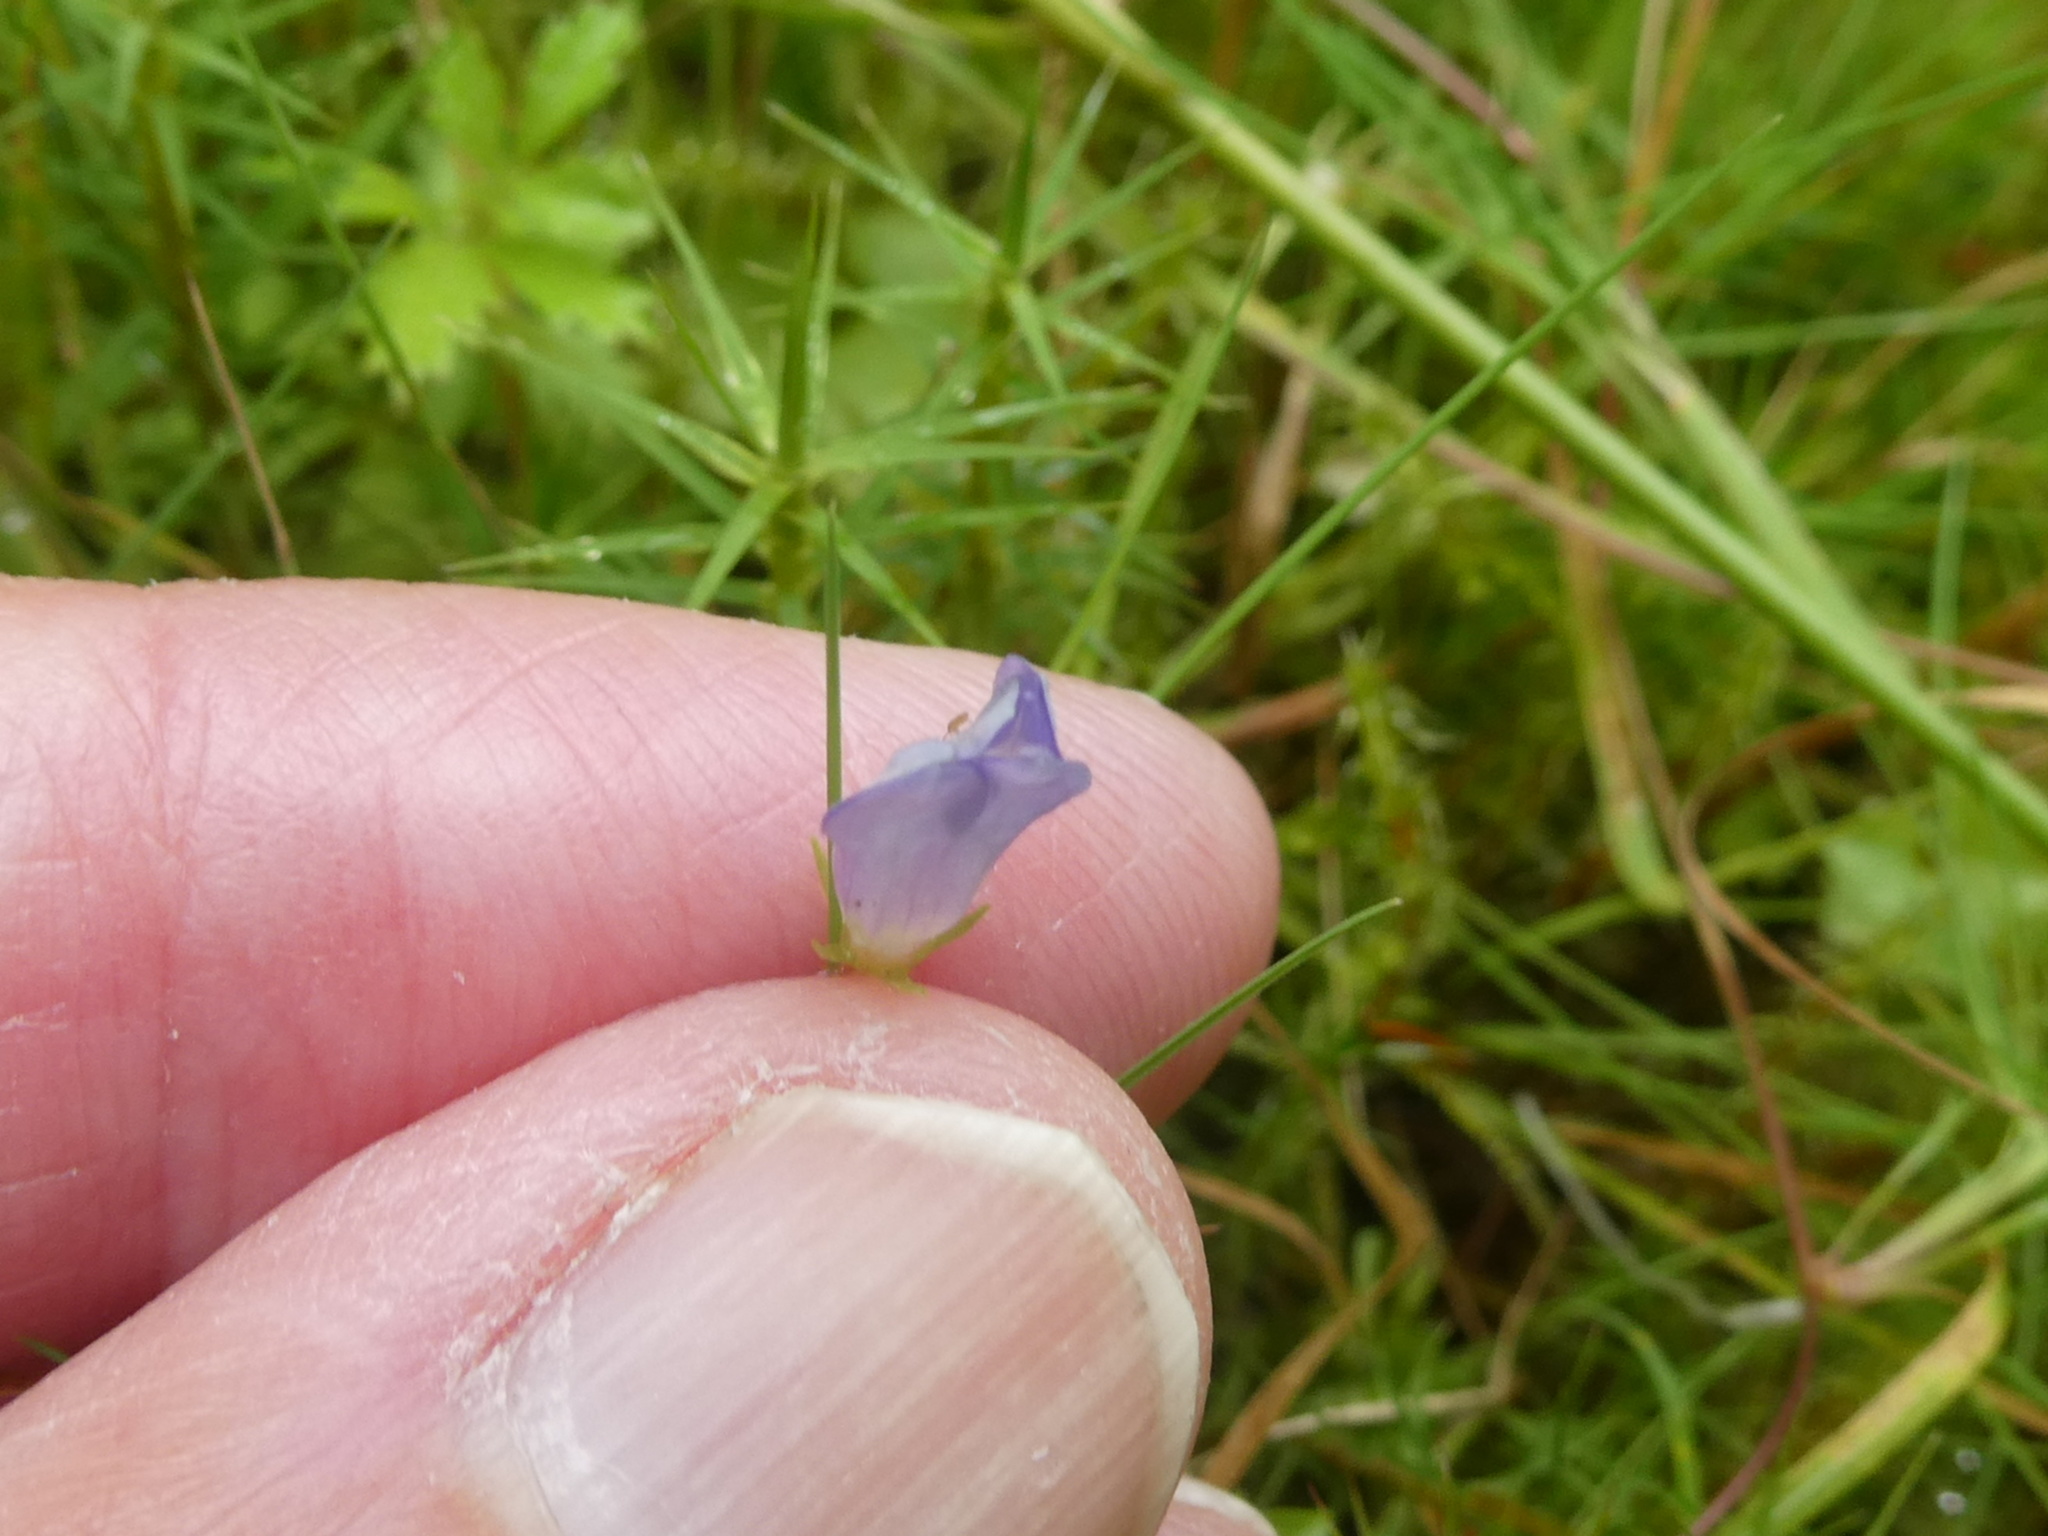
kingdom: Plantae
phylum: Tracheophyta
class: Magnoliopsida
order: Asterales
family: Campanulaceae
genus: Hesperocodon
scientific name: Hesperocodon hederaceus
